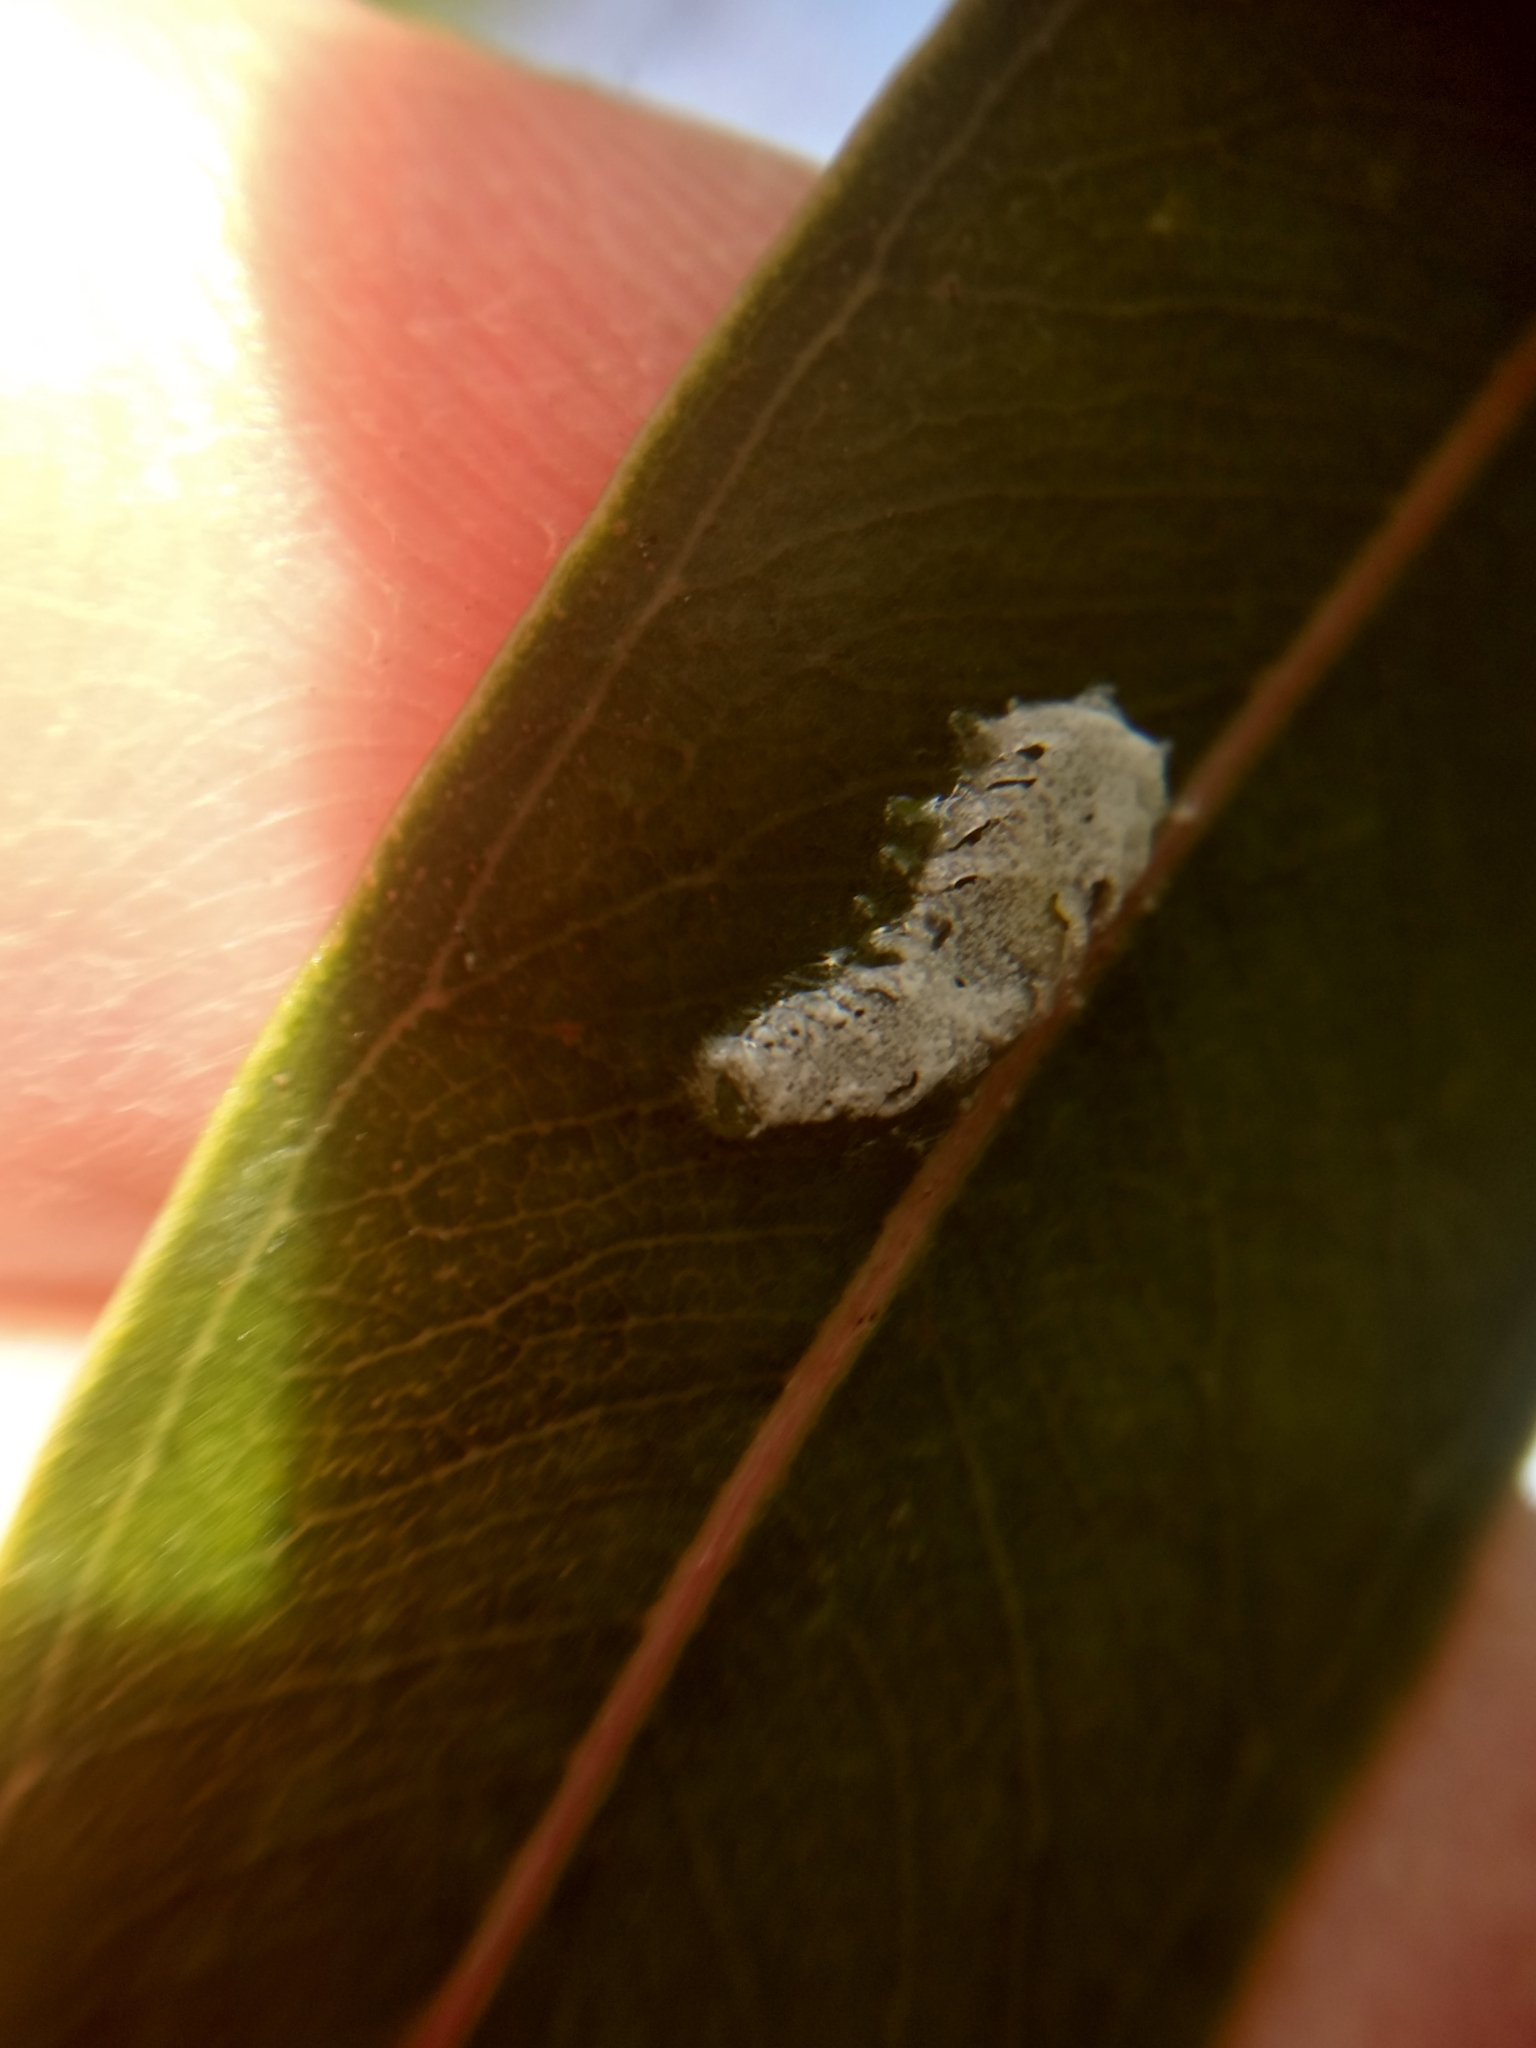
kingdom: Animalia
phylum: Arthropoda
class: Insecta
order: Hemiptera
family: Aphalaridae
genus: Eucalyptolyma
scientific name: Eucalyptolyma maideni
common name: Spotted gum lerp psyllid
